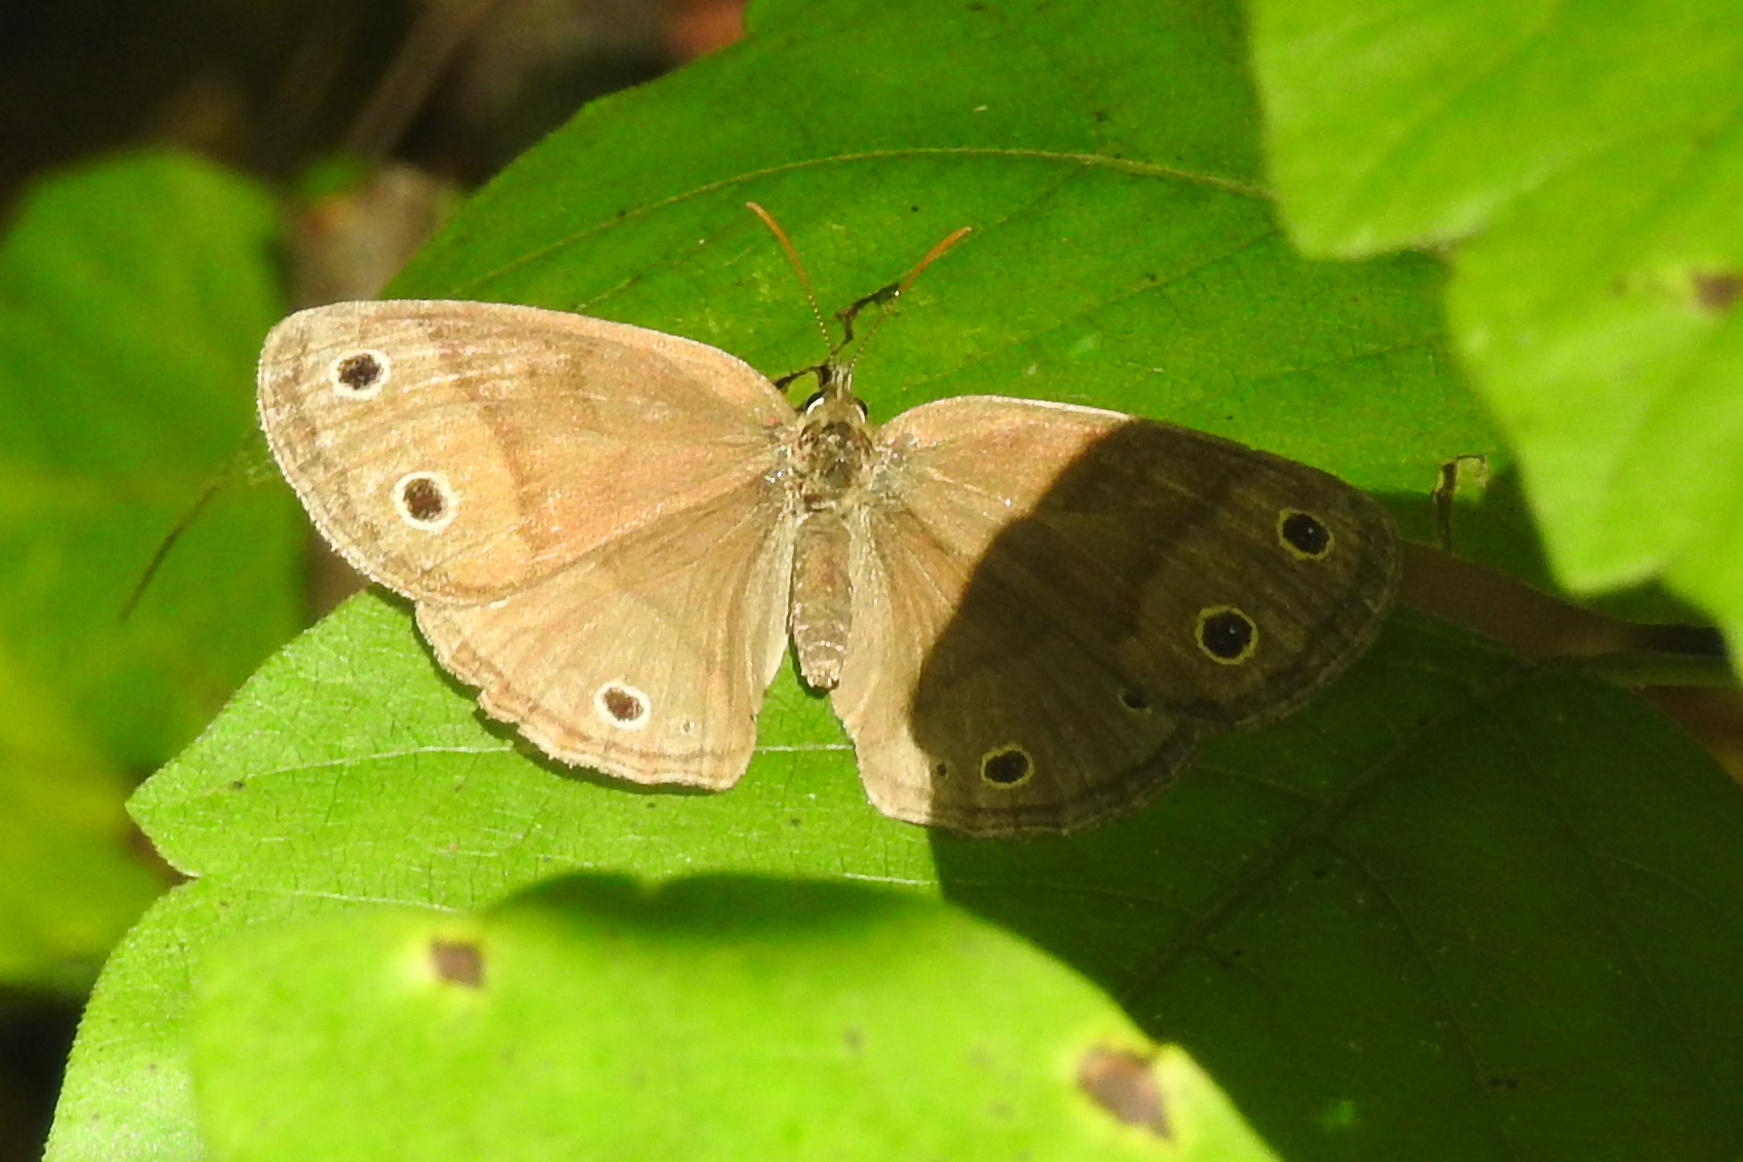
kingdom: Animalia
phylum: Arthropoda
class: Insecta
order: Lepidoptera
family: Nymphalidae
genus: Euptychia
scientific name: Euptychia cymela
